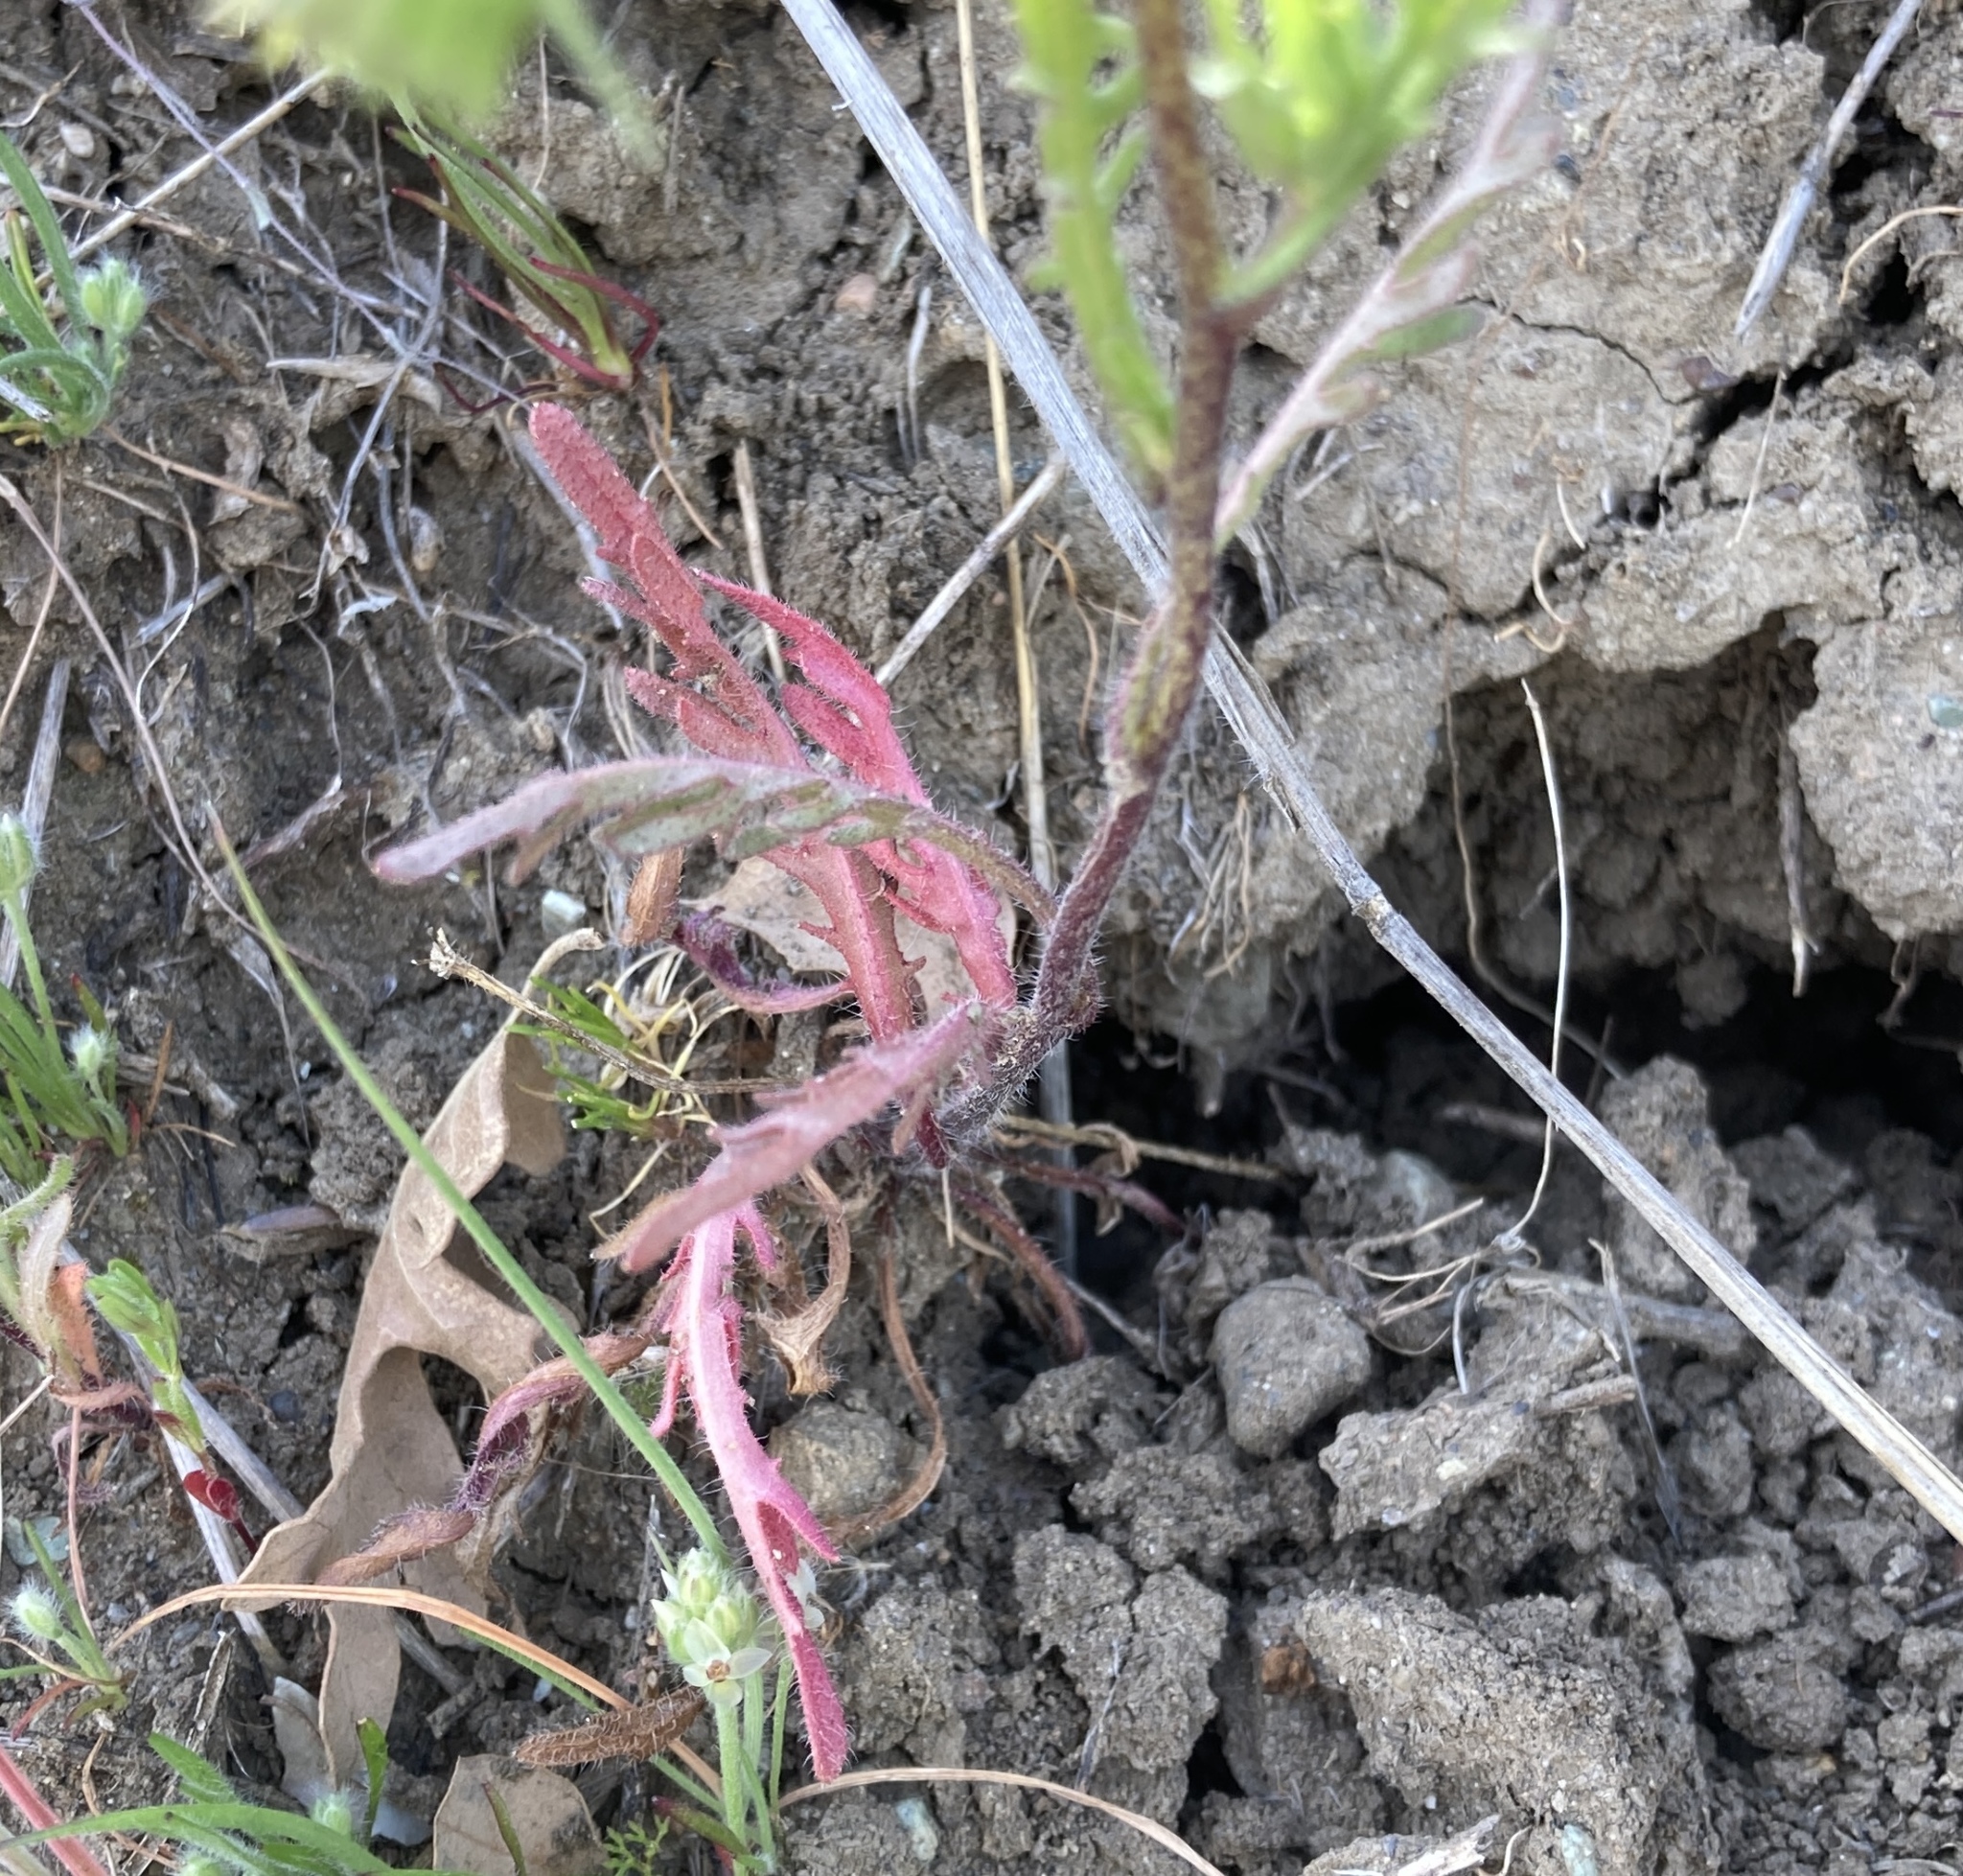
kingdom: Plantae
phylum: Tracheophyta
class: Magnoliopsida
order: Asterales
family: Asteraceae
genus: Layia
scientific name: Layia gaillardioides
